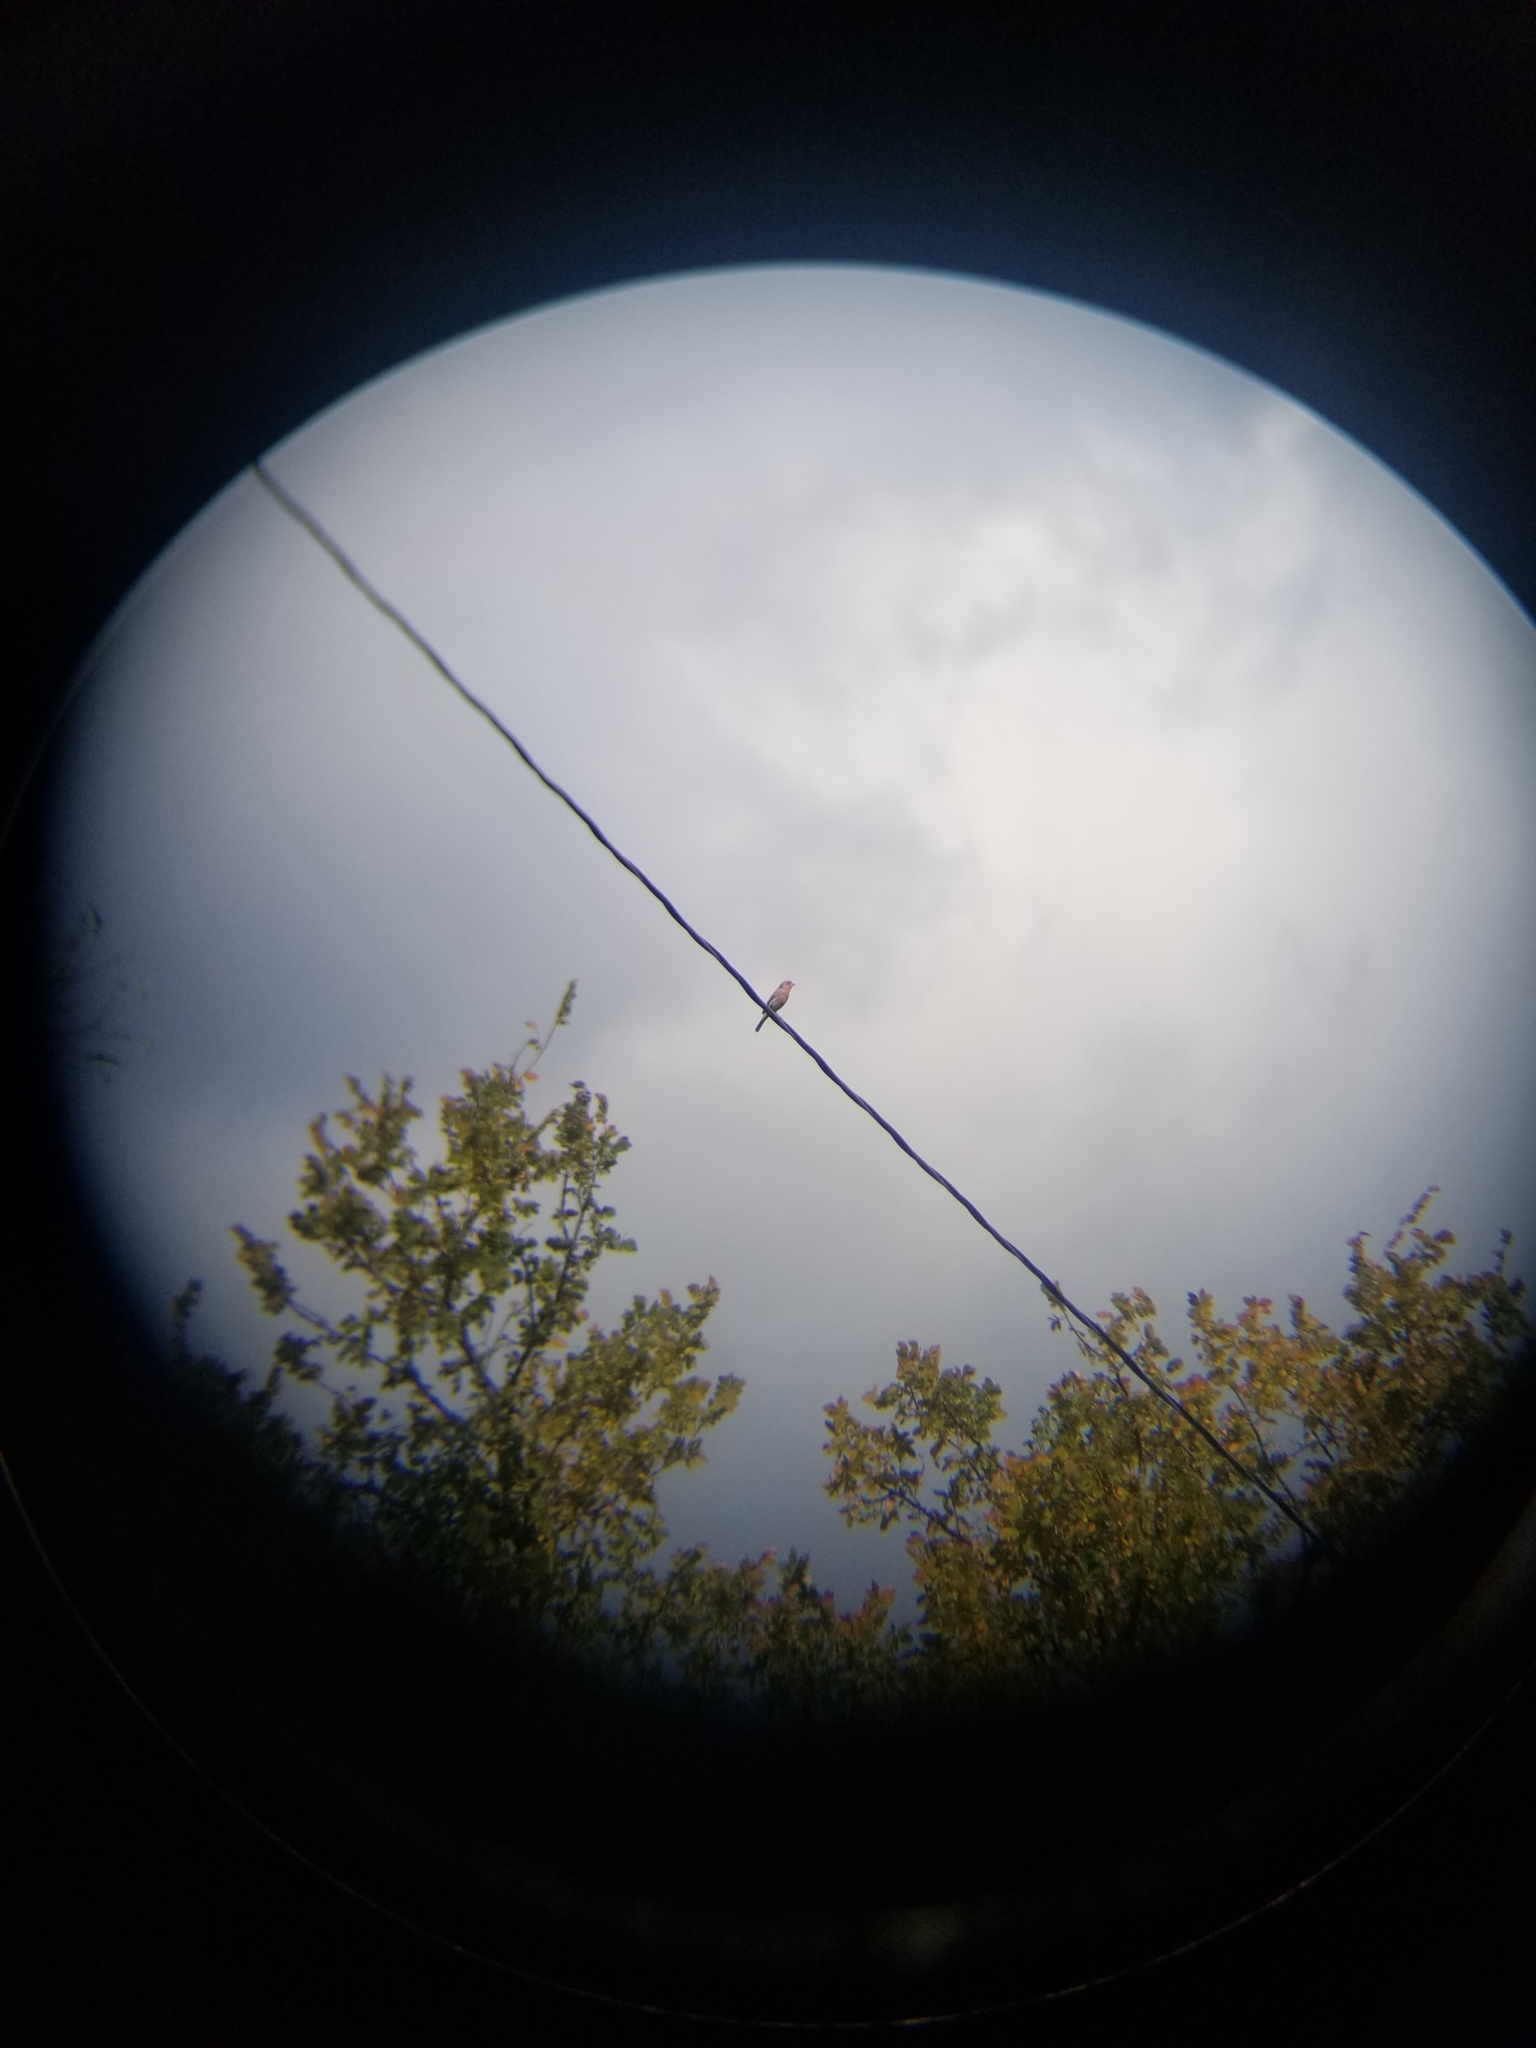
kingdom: Animalia
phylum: Chordata
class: Aves
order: Passeriformes
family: Fringillidae
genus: Haemorhous
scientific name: Haemorhous mexicanus
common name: House finch
